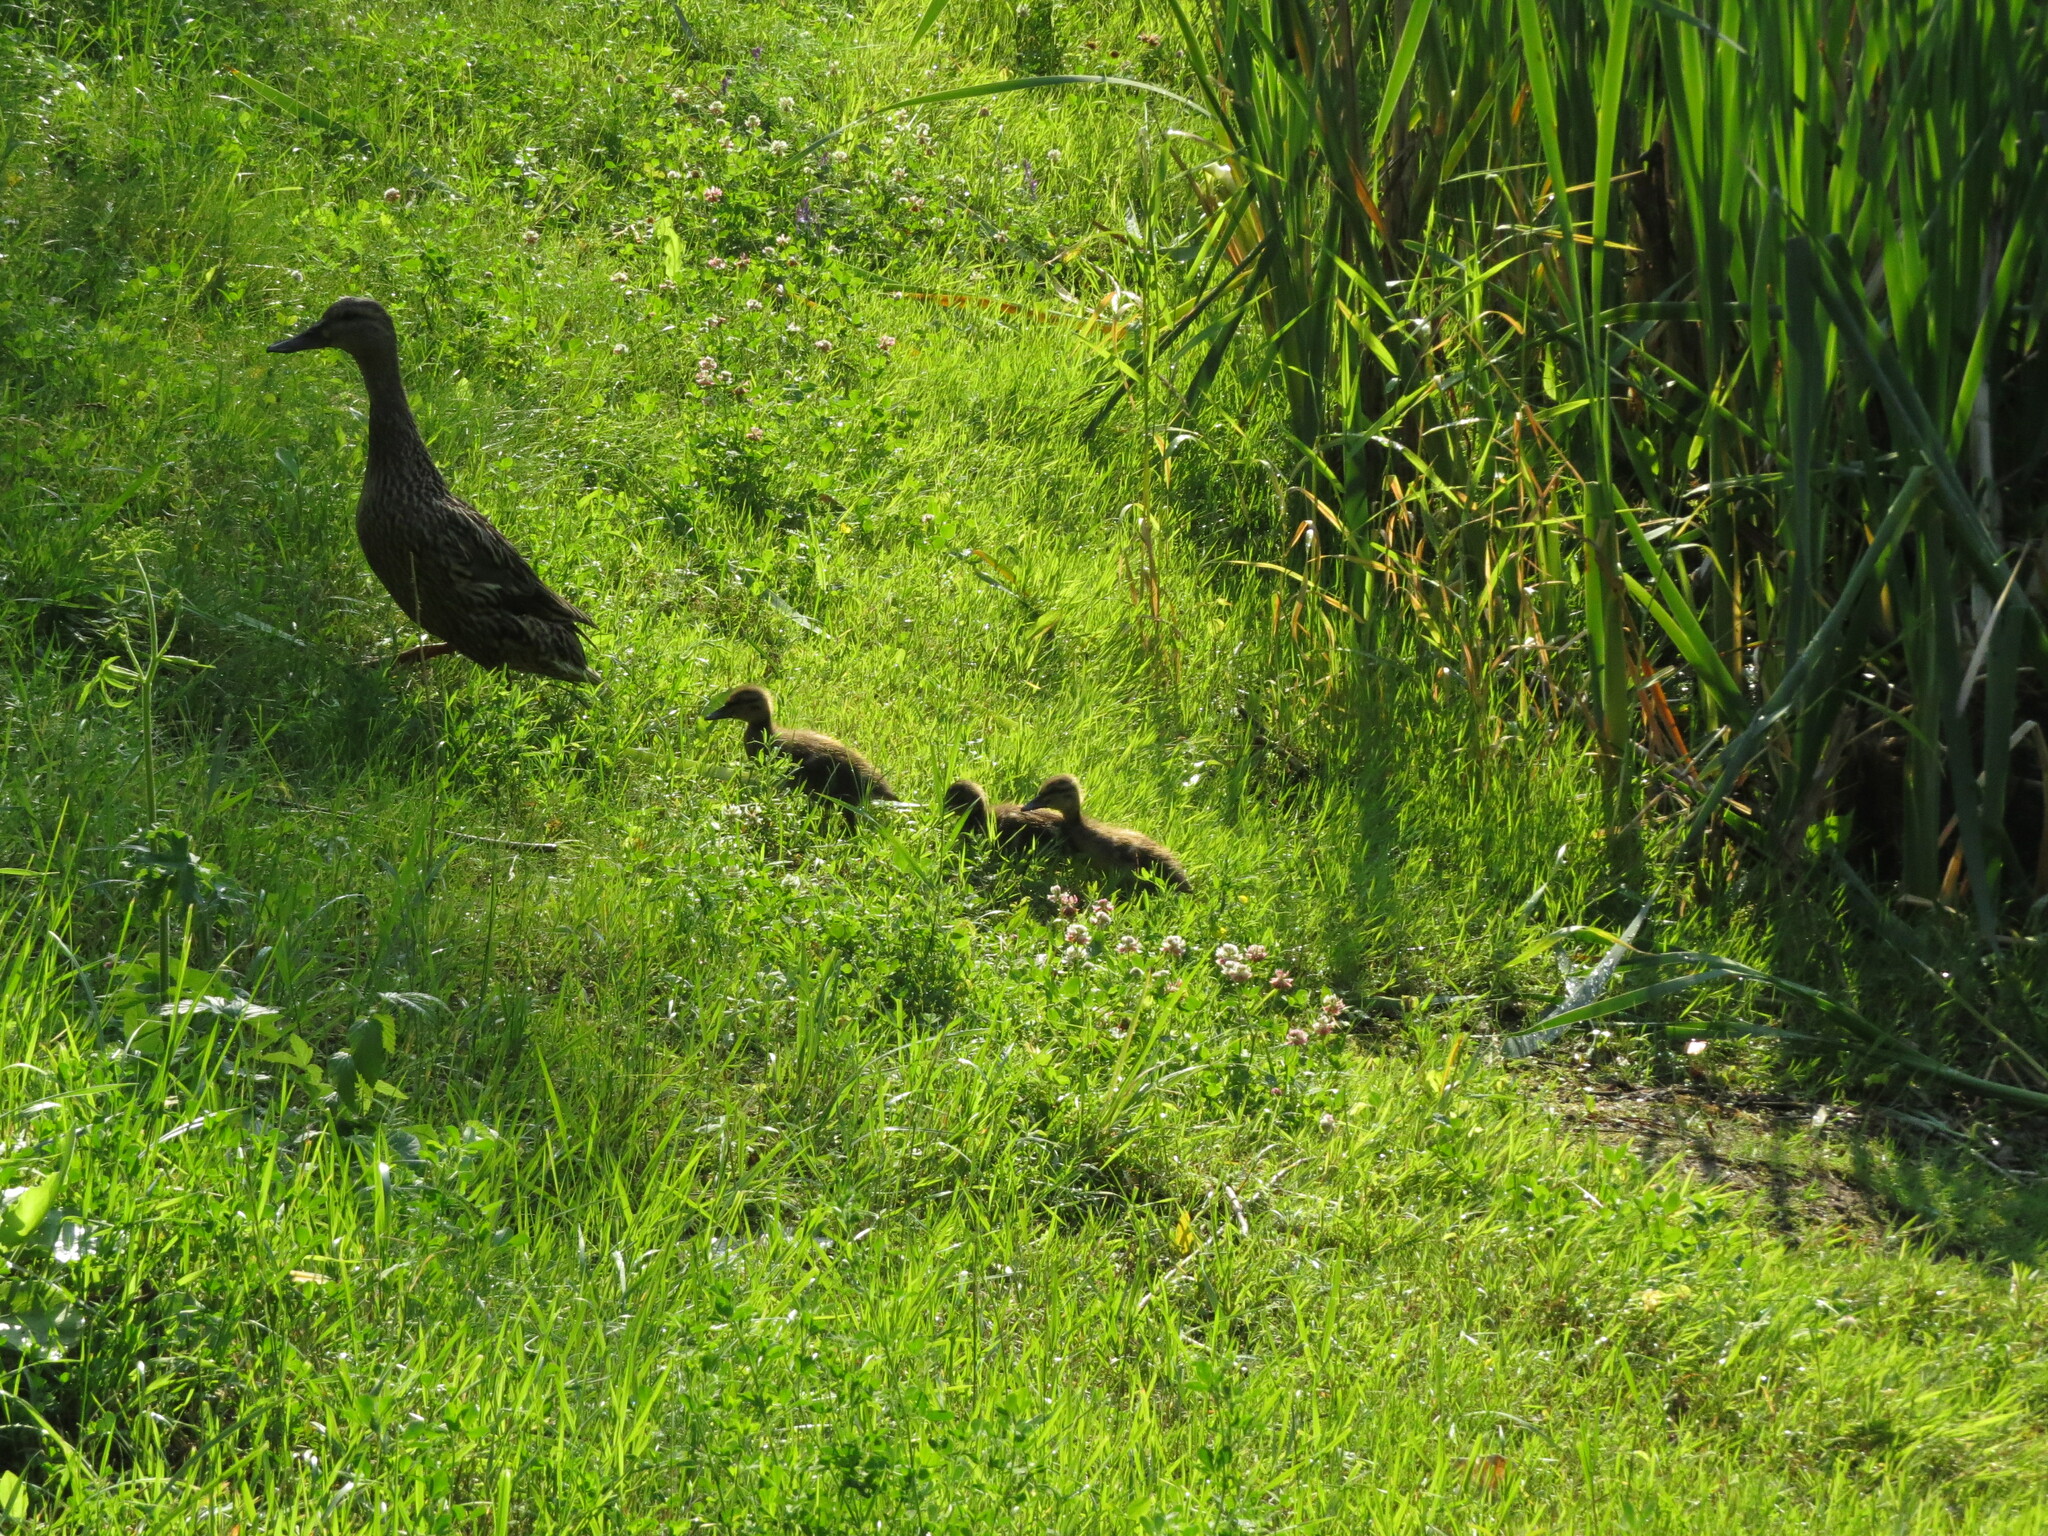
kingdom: Animalia
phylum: Chordata
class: Aves
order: Anseriformes
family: Anatidae
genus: Anas
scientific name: Anas platyrhynchos
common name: Mallard
